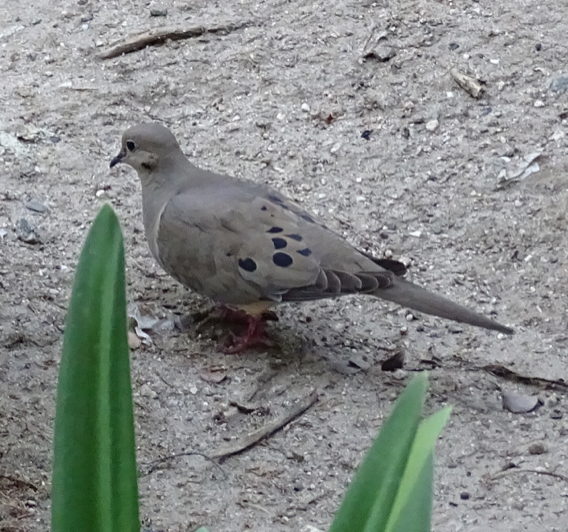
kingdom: Animalia
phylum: Chordata
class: Aves
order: Columbiformes
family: Columbidae
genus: Zenaida
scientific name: Zenaida macroura
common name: Mourning dove
